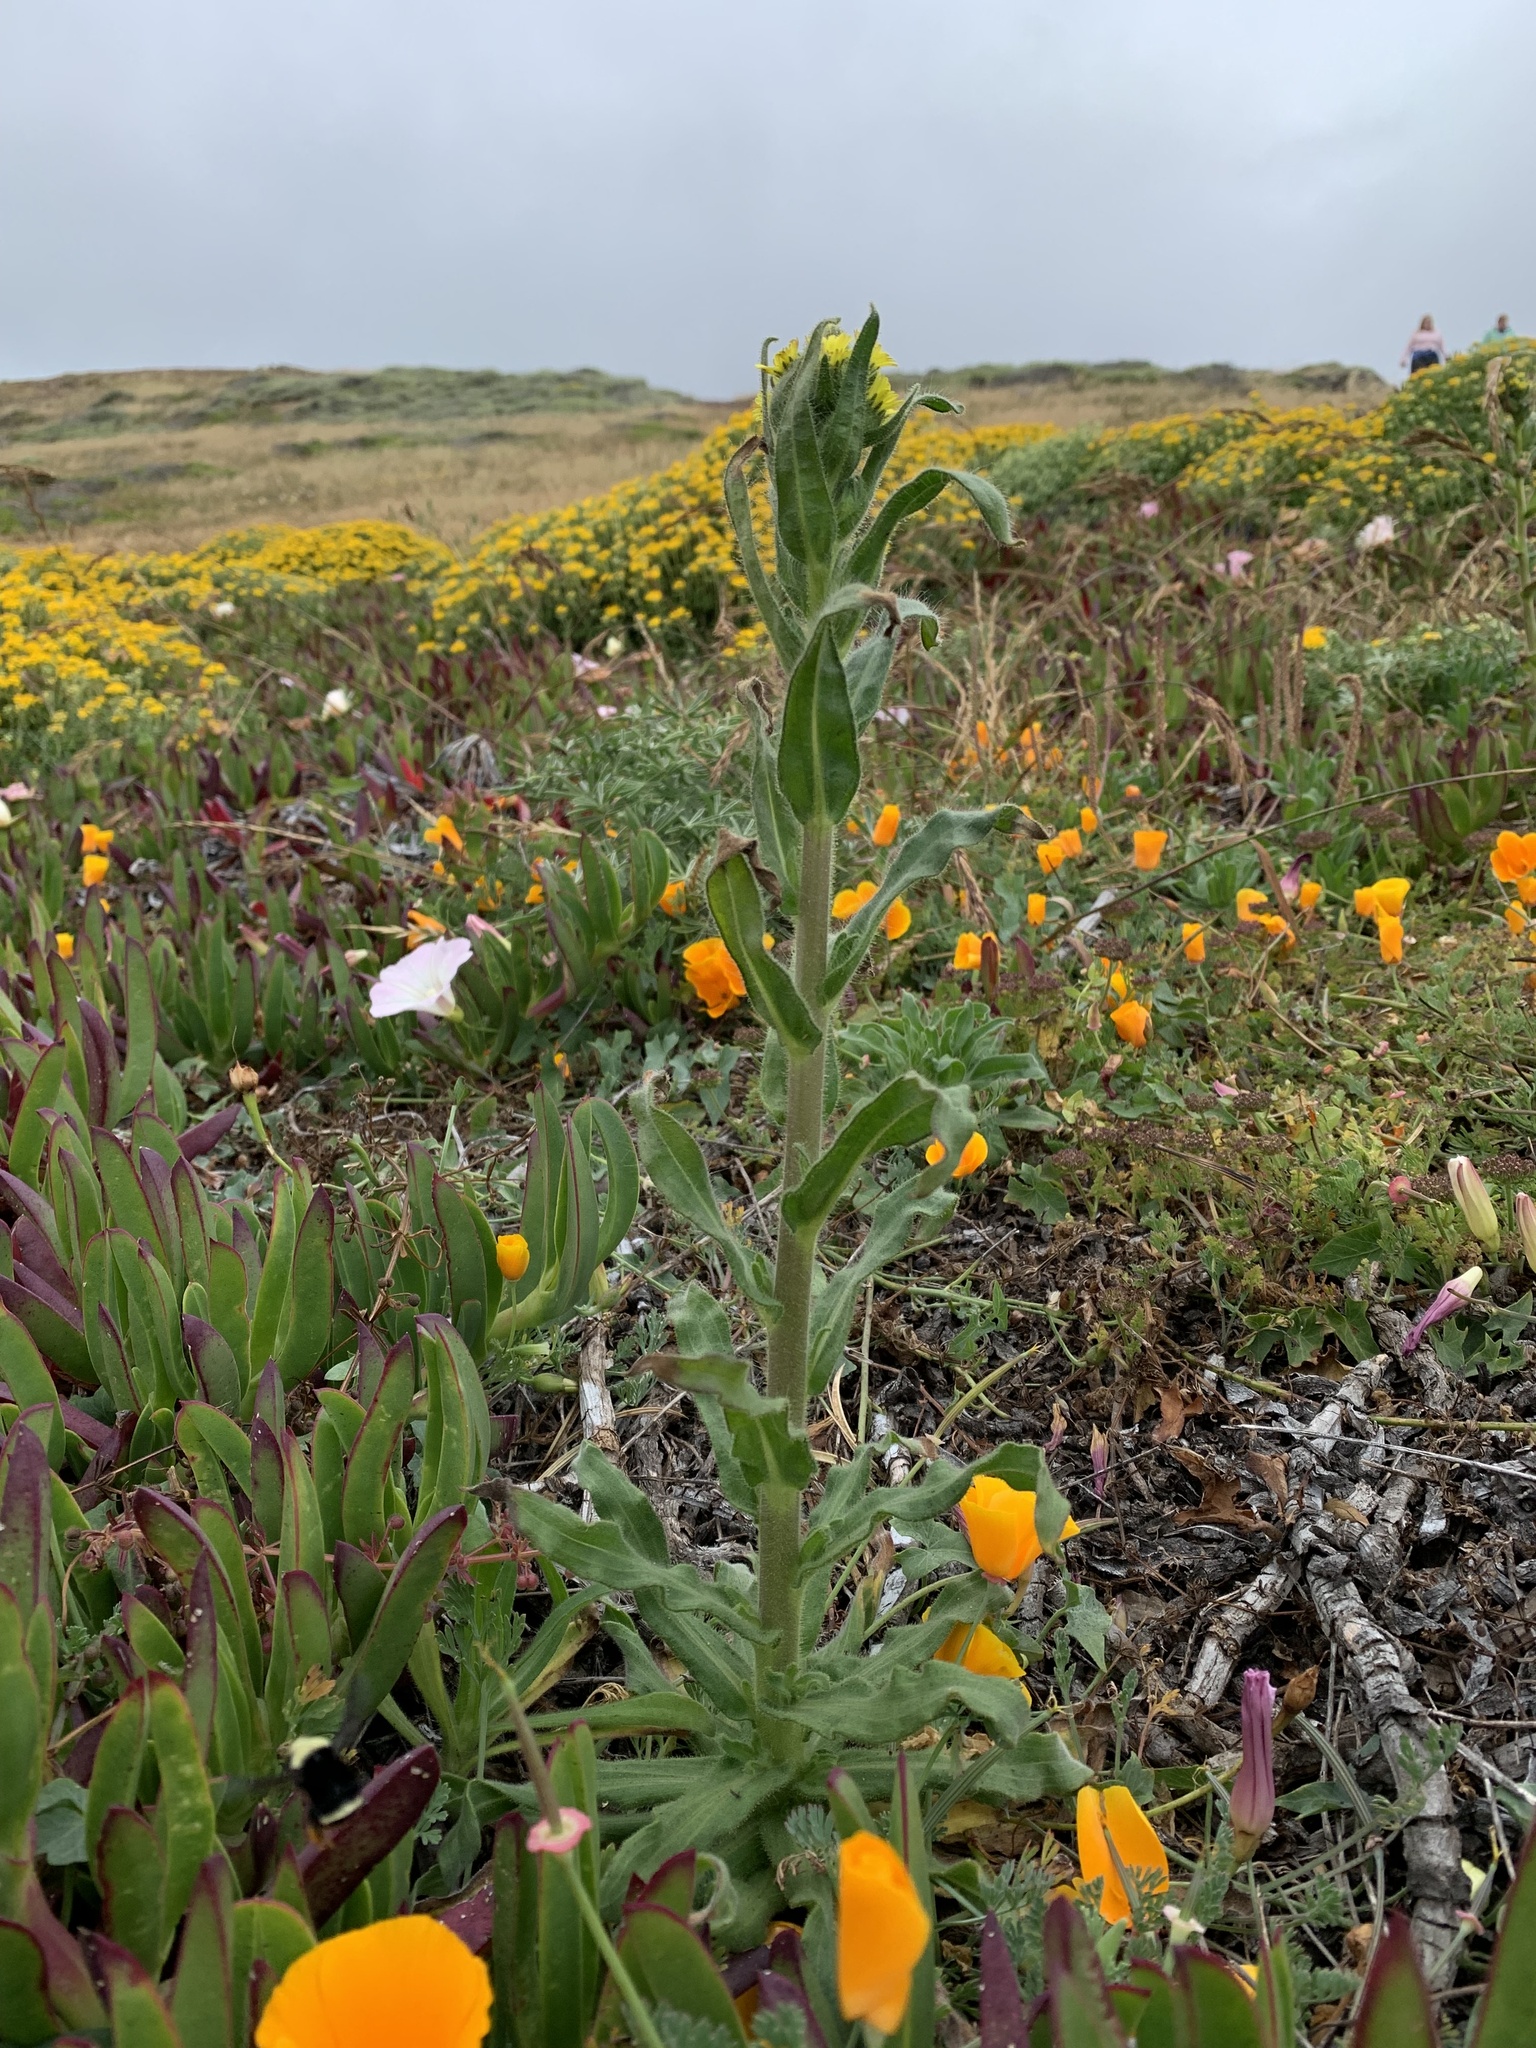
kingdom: Plantae
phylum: Tracheophyta
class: Magnoliopsida
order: Asterales
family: Asteraceae
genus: Madia
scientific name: Madia sativa
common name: Coast tarweed
